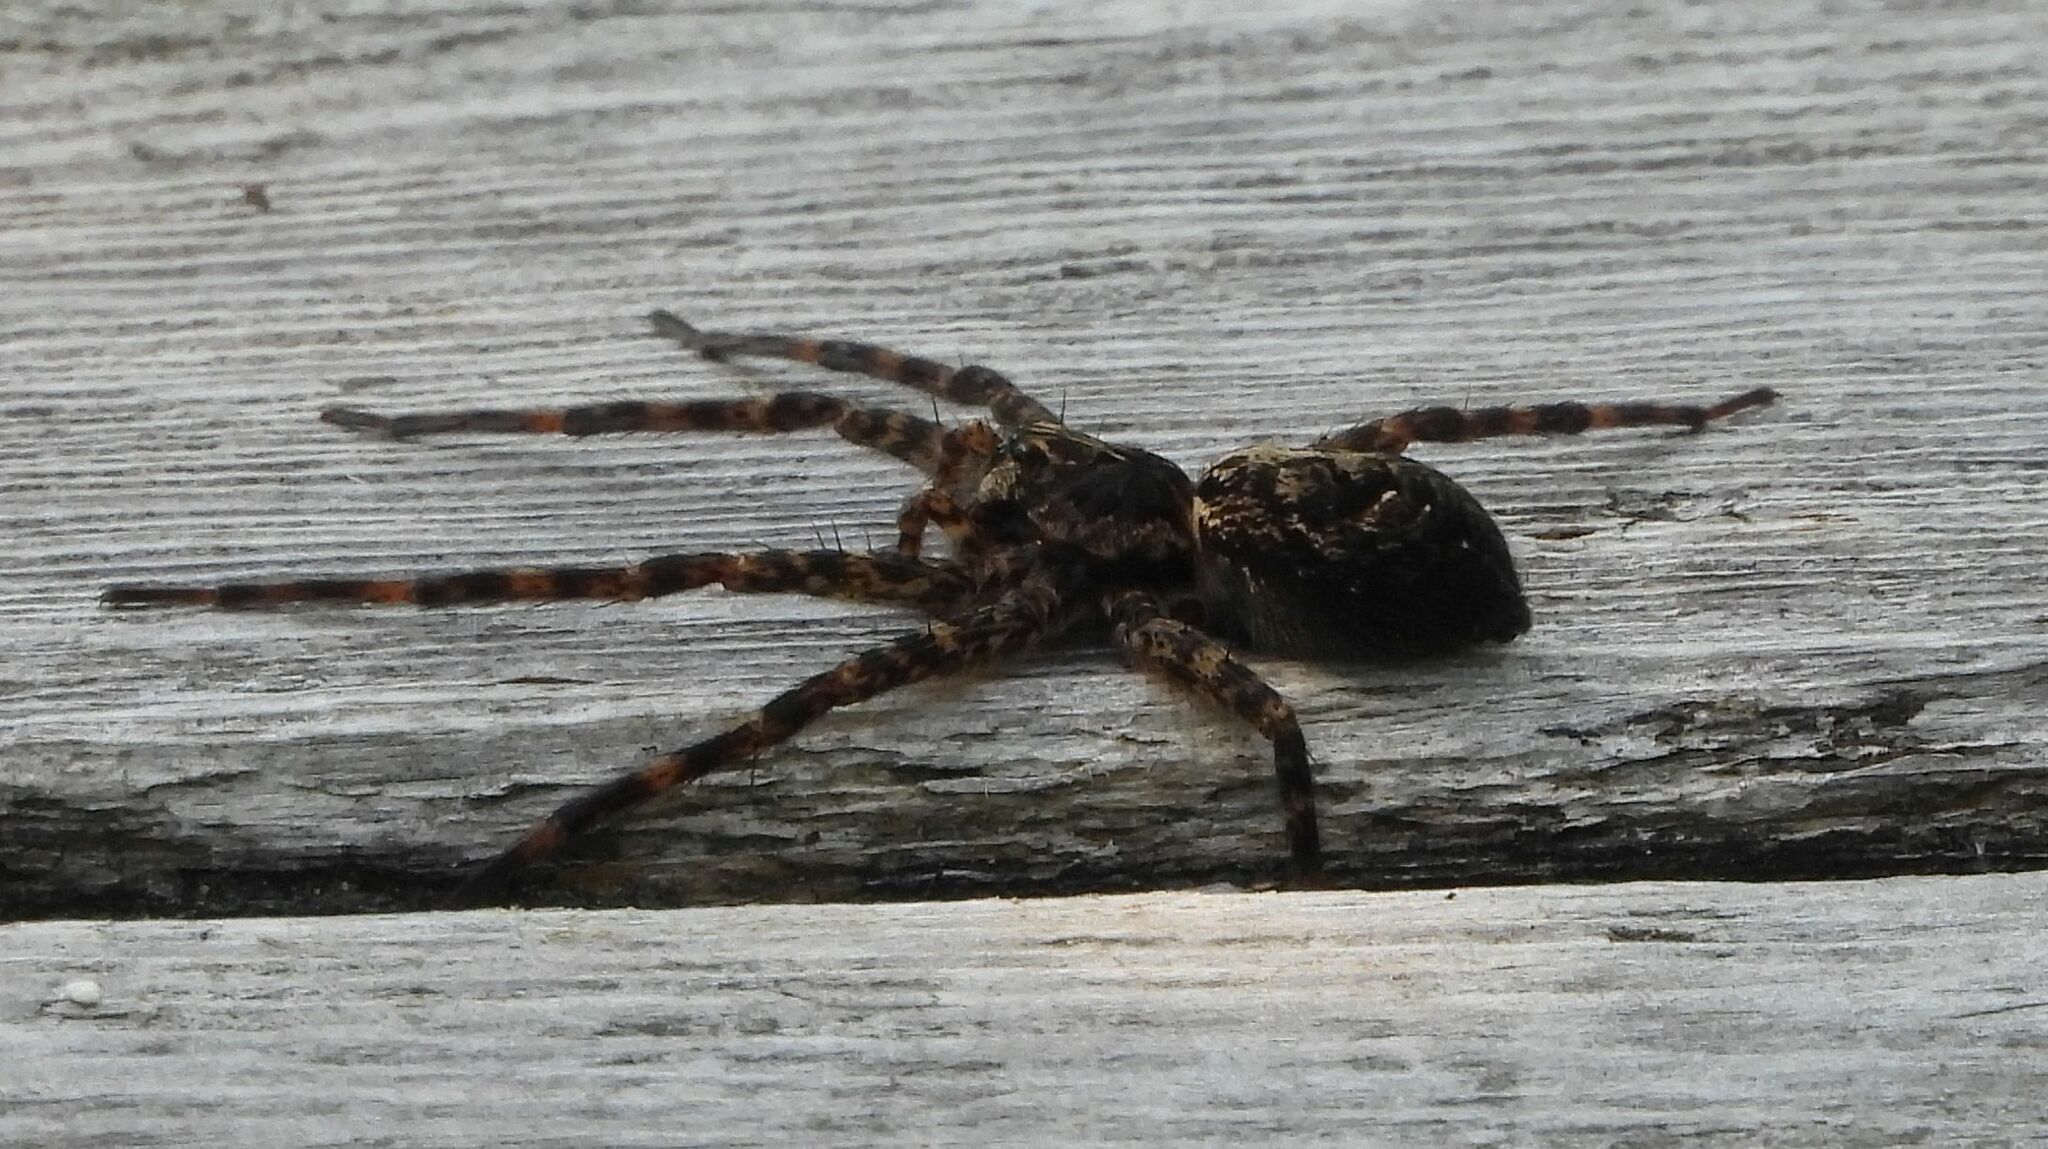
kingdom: Animalia
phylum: Arthropoda
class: Arachnida
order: Araneae
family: Pisauridae
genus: Dolomedes
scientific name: Dolomedes tenebrosus
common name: Dark fishing spider
